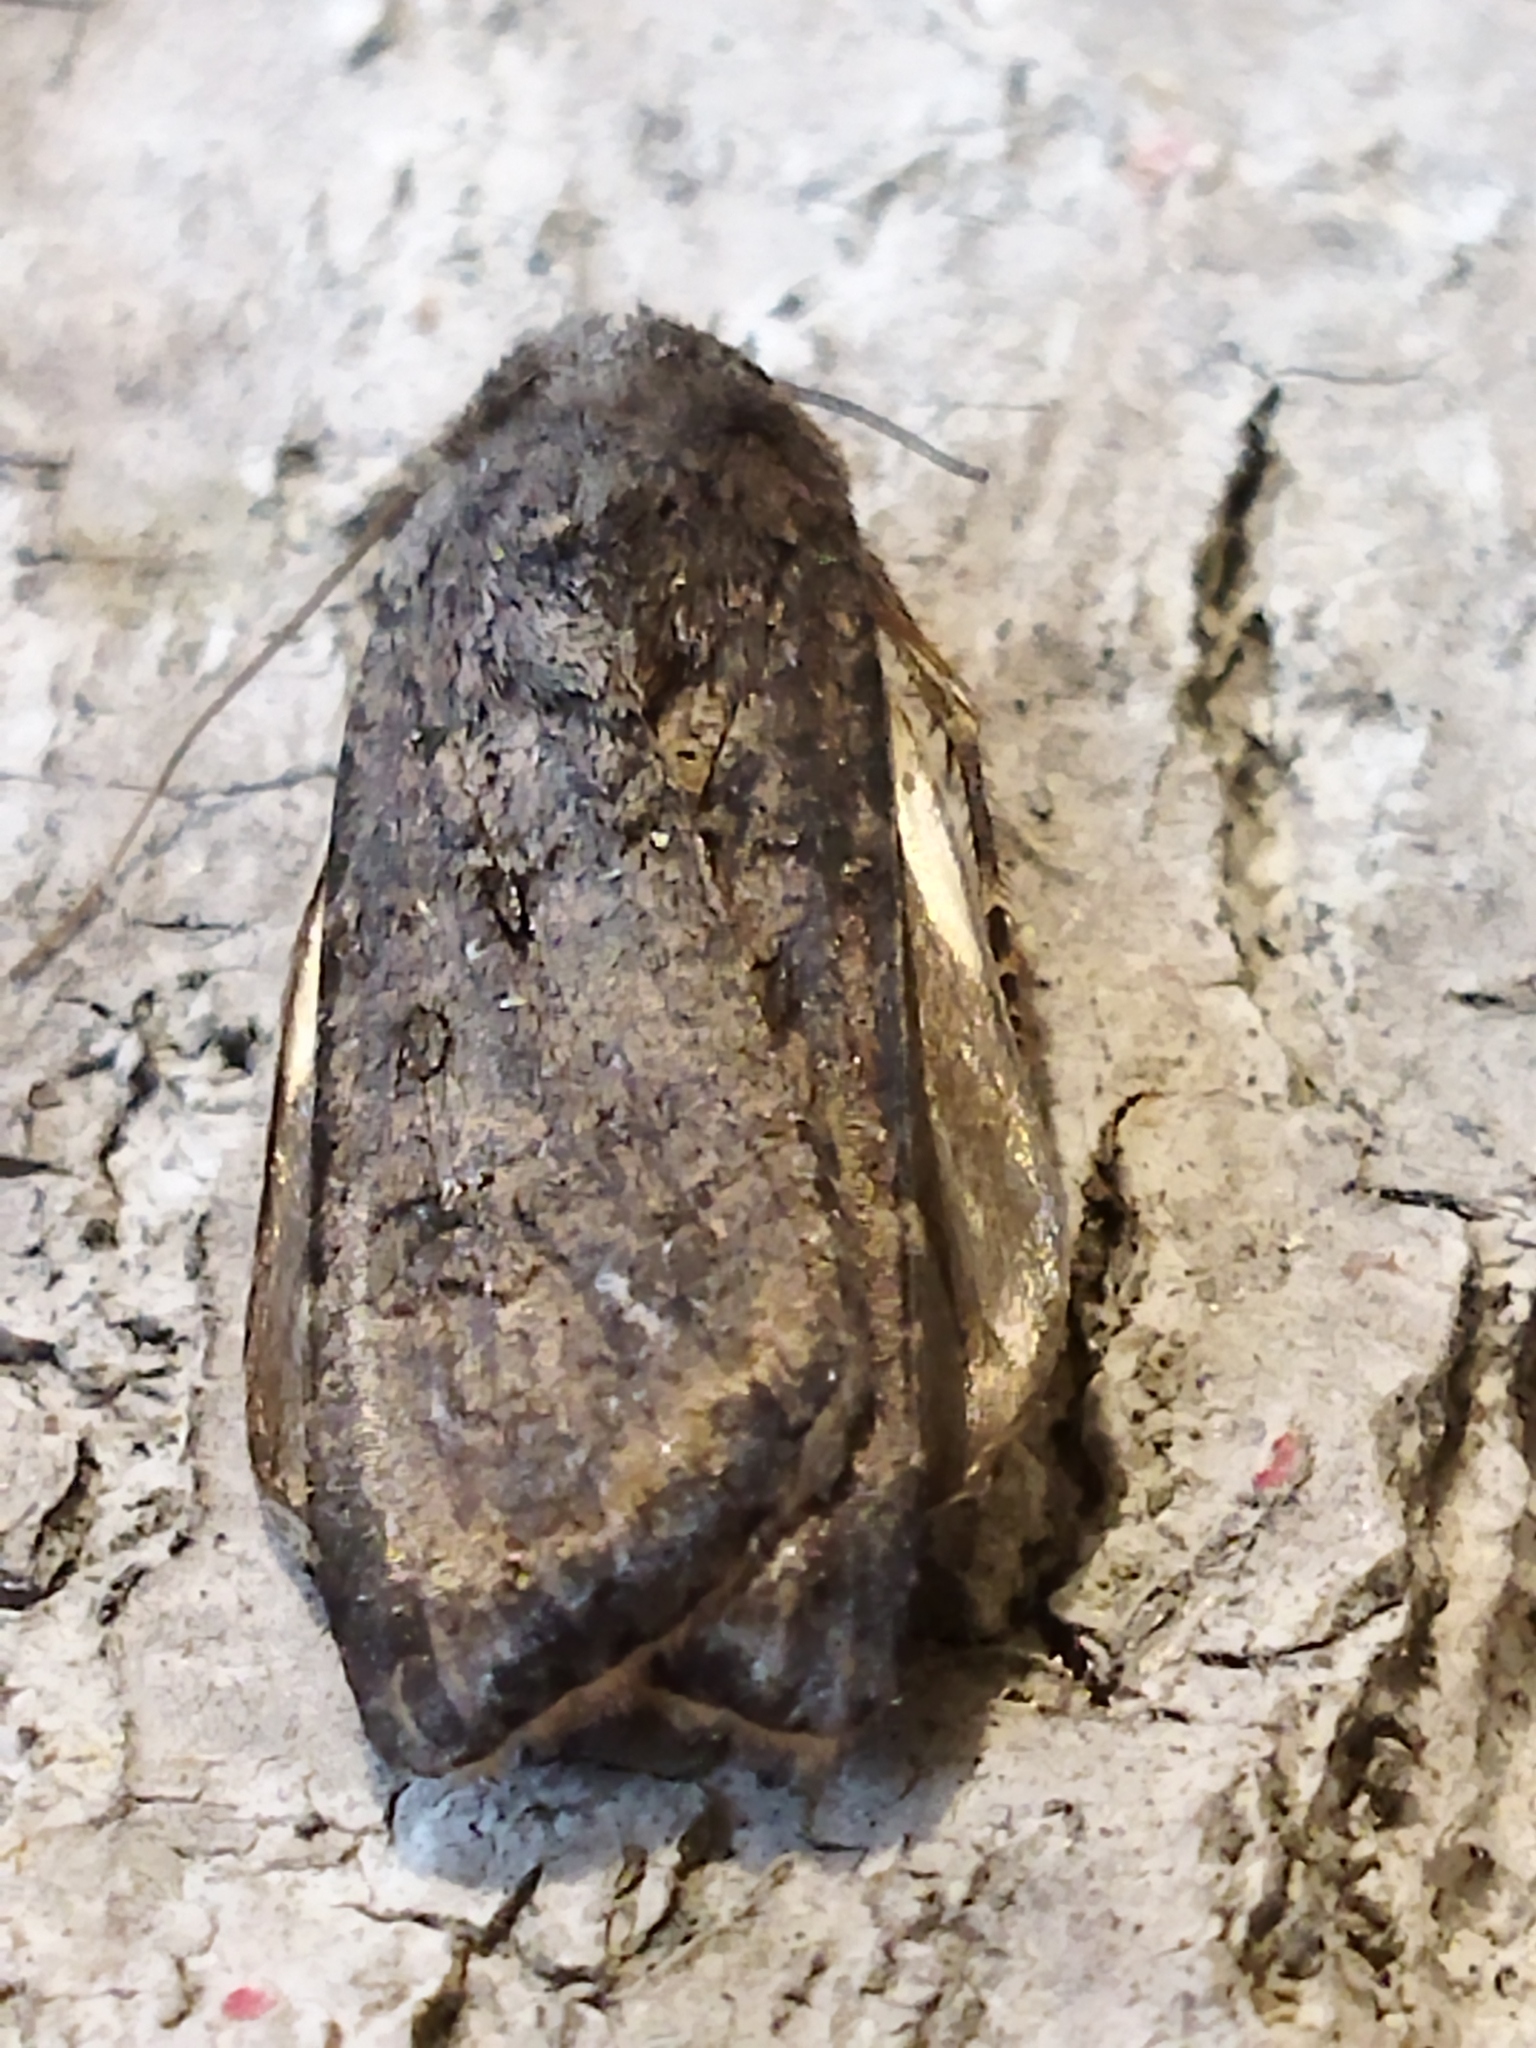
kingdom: Animalia
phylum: Arthropoda
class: Insecta
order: Lepidoptera
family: Noctuidae
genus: Agrotis
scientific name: Agrotis segetum
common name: Turnip moth
